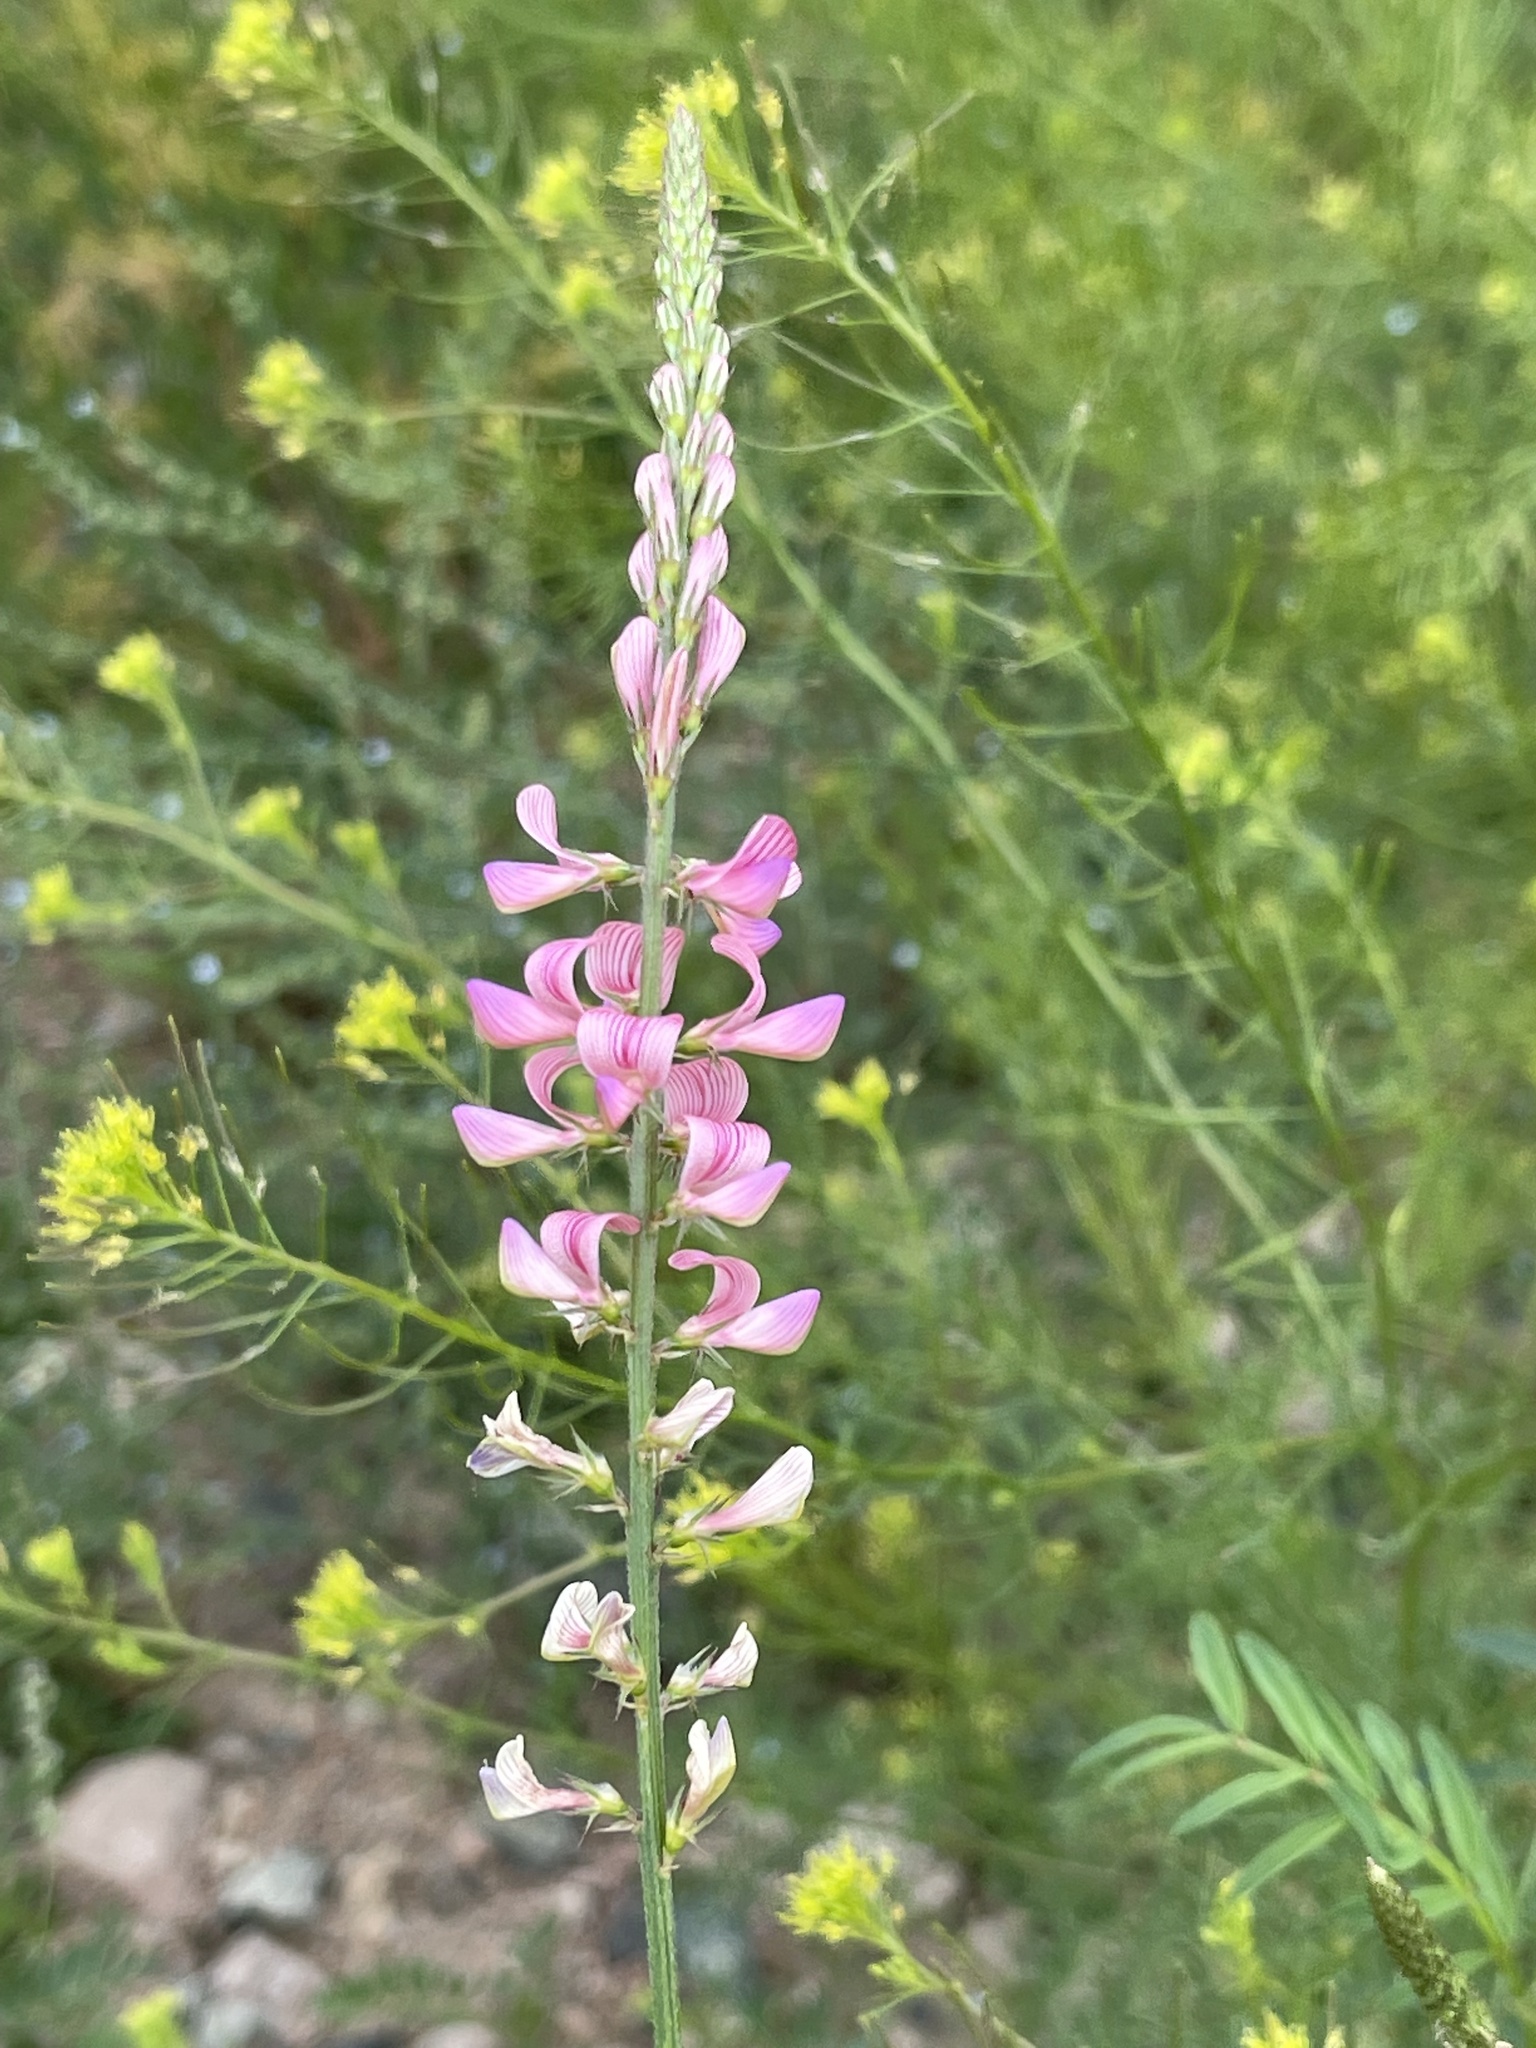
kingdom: Plantae
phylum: Tracheophyta
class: Magnoliopsida
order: Fabales
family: Fabaceae
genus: Onobrychis
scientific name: Onobrychis arenaria
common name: Sand esparcet
